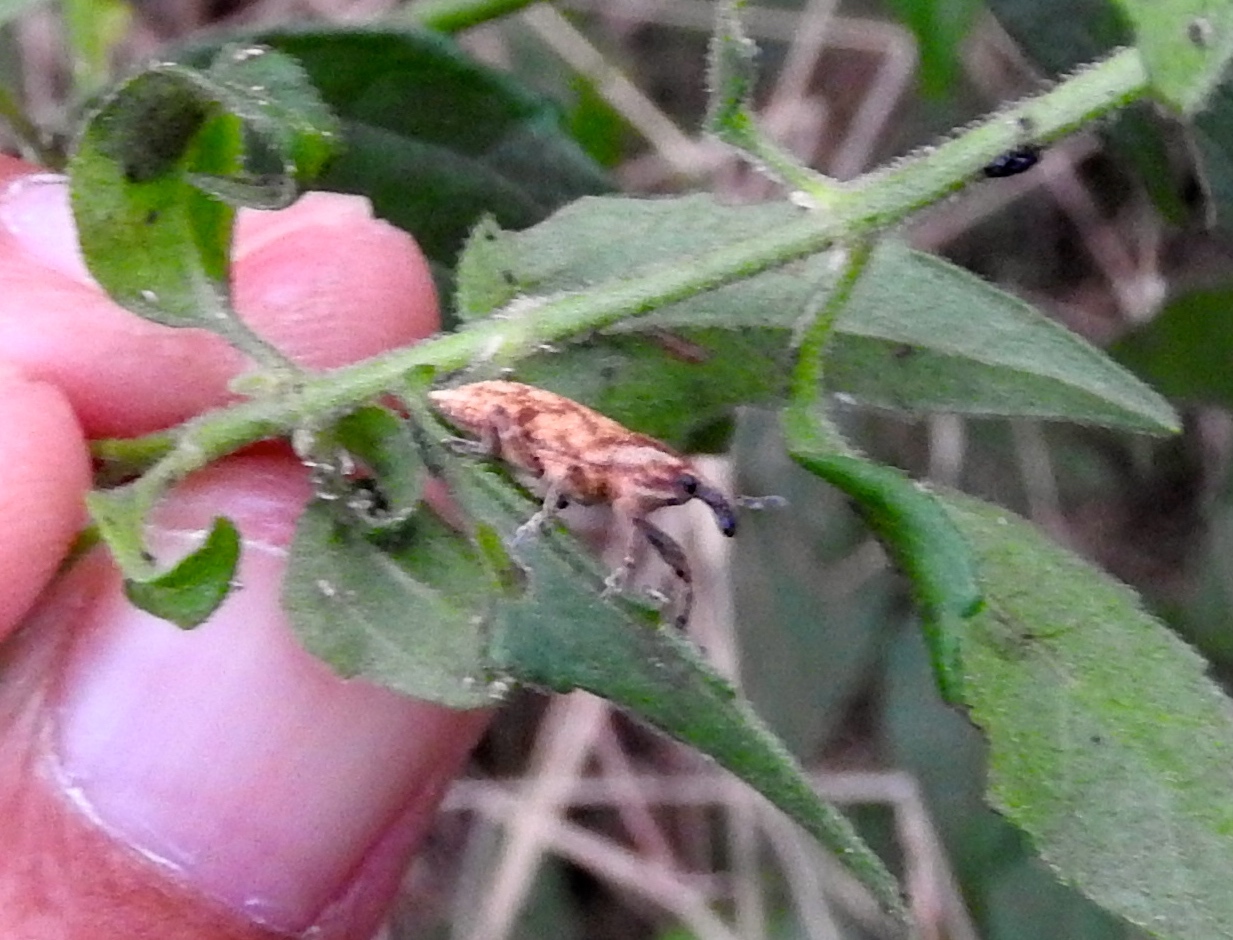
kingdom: Animalia
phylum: Arthropoda
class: Insecta
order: Coleoptera
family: Curculionidae
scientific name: Curculionidae
